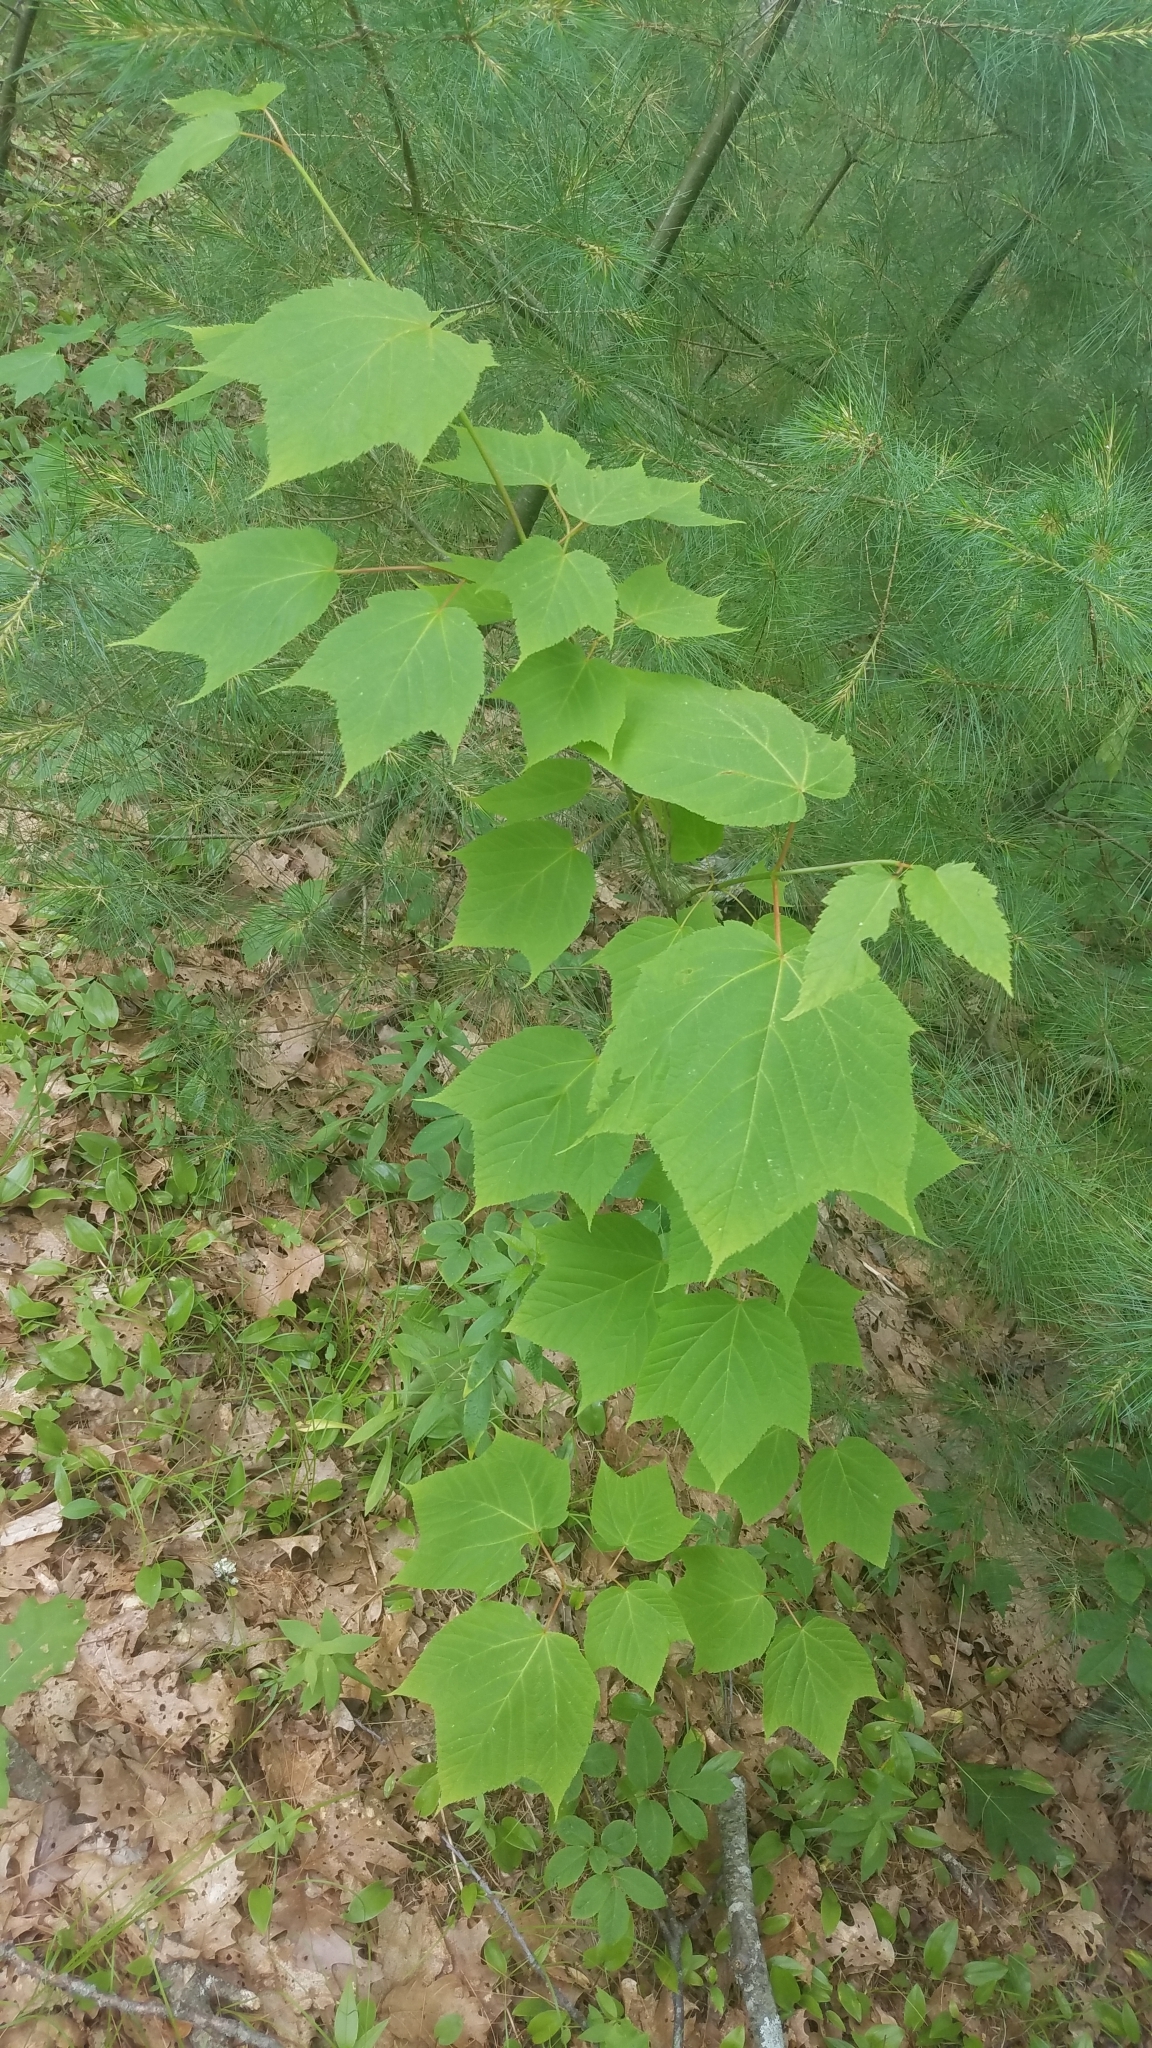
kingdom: Plantae
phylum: Tracheophyta
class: Magnoliopsida
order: Sapindales
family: Sapindaceae
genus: Acer
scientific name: Acer pensylvanicum
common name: Moosewood
